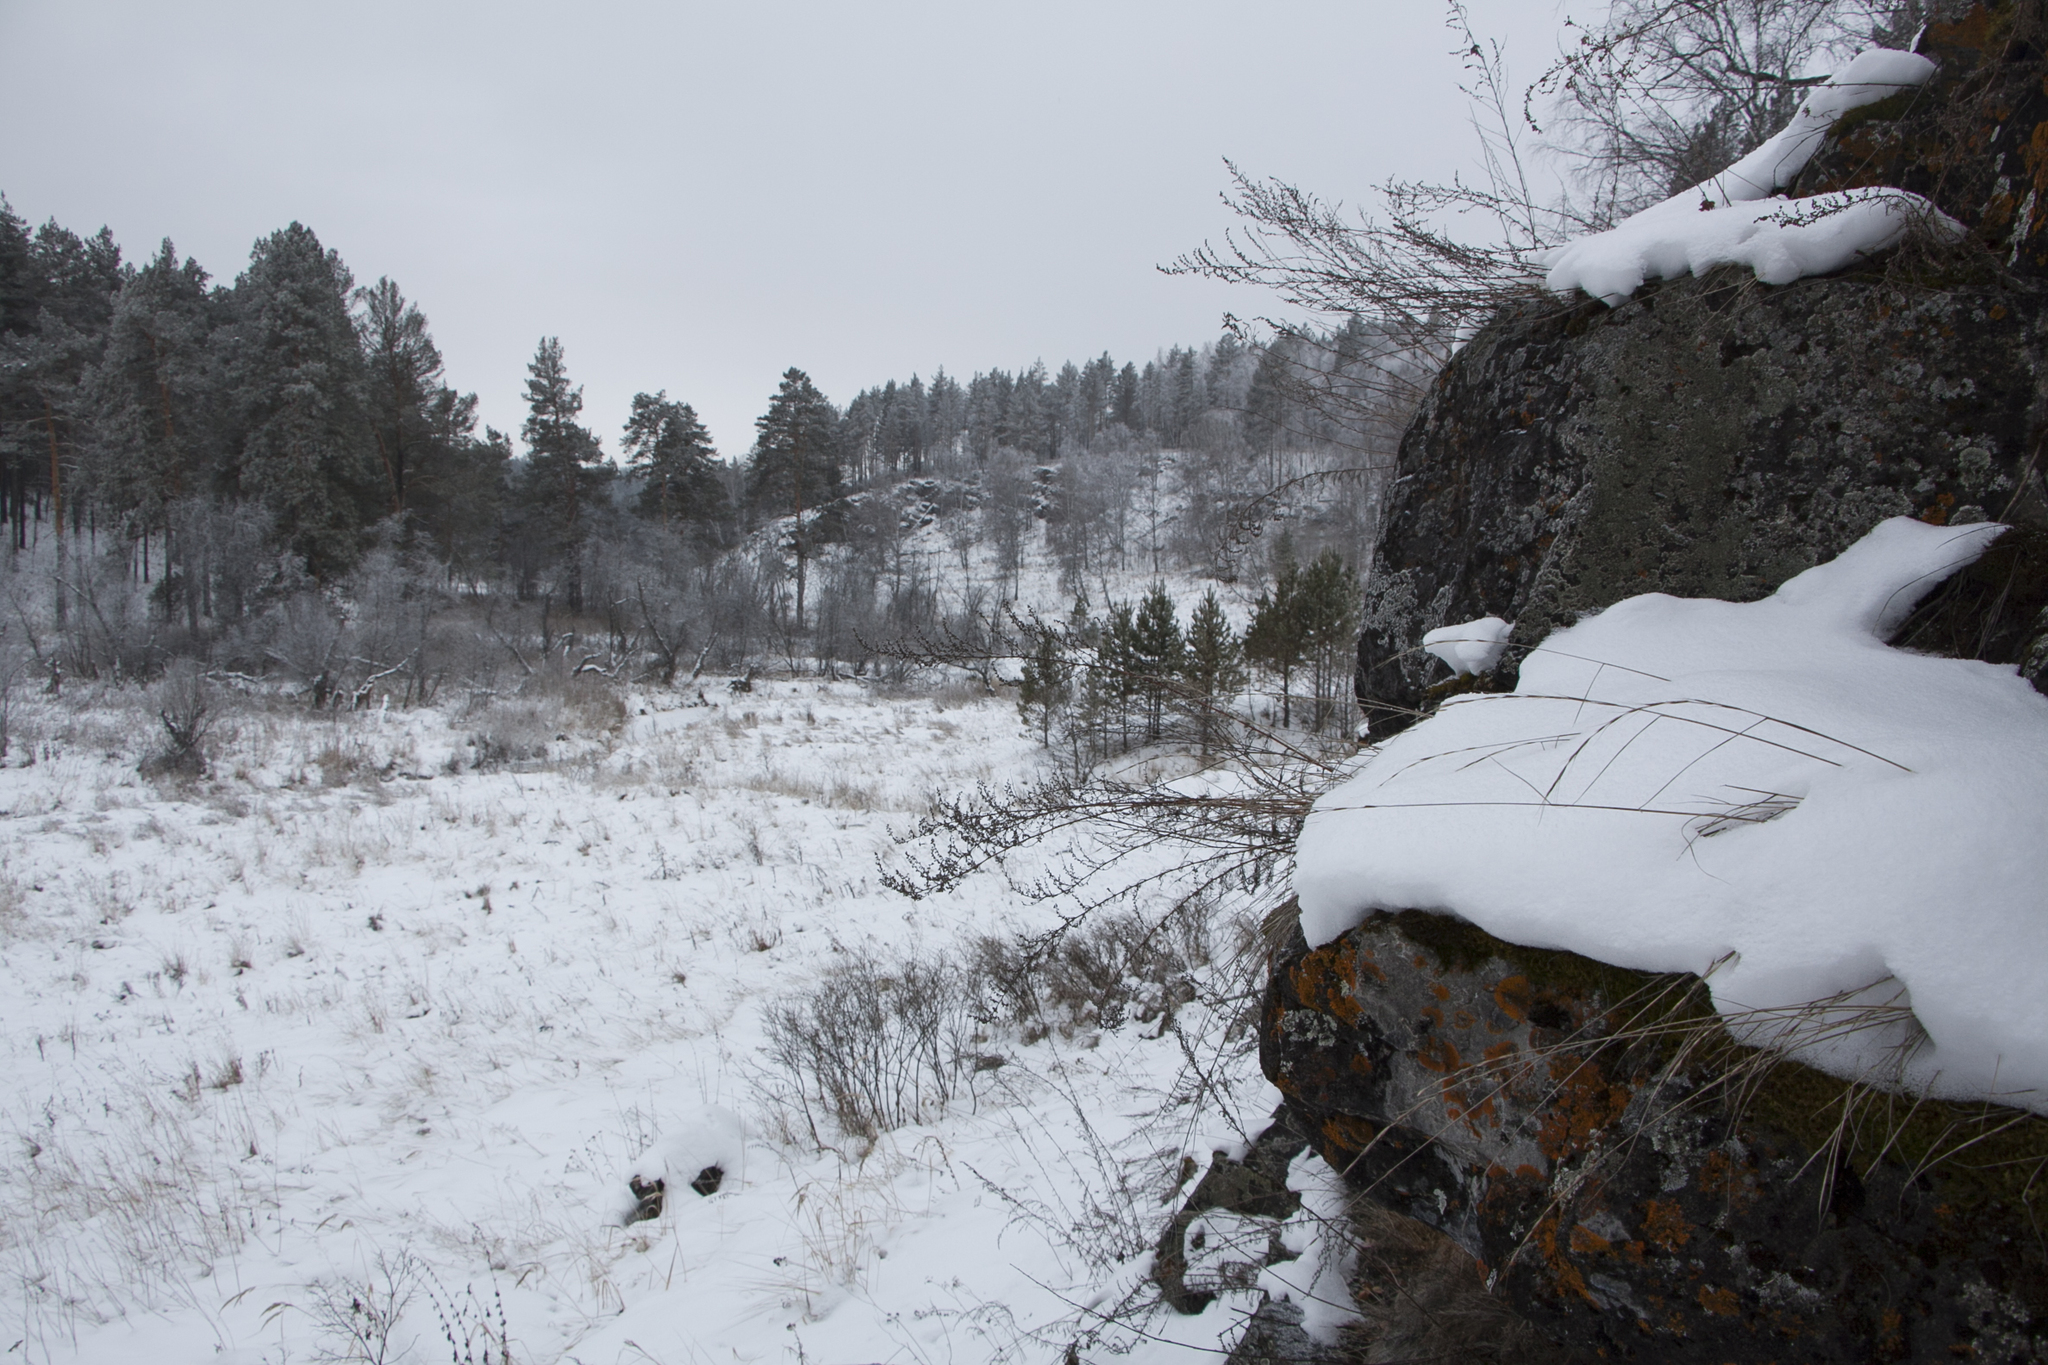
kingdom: Plantae
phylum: Tracheophyta
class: Pinopsida
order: Pinales
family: Pinaceae
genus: Pinus
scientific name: Pinus sylvestris
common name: Scots pine
